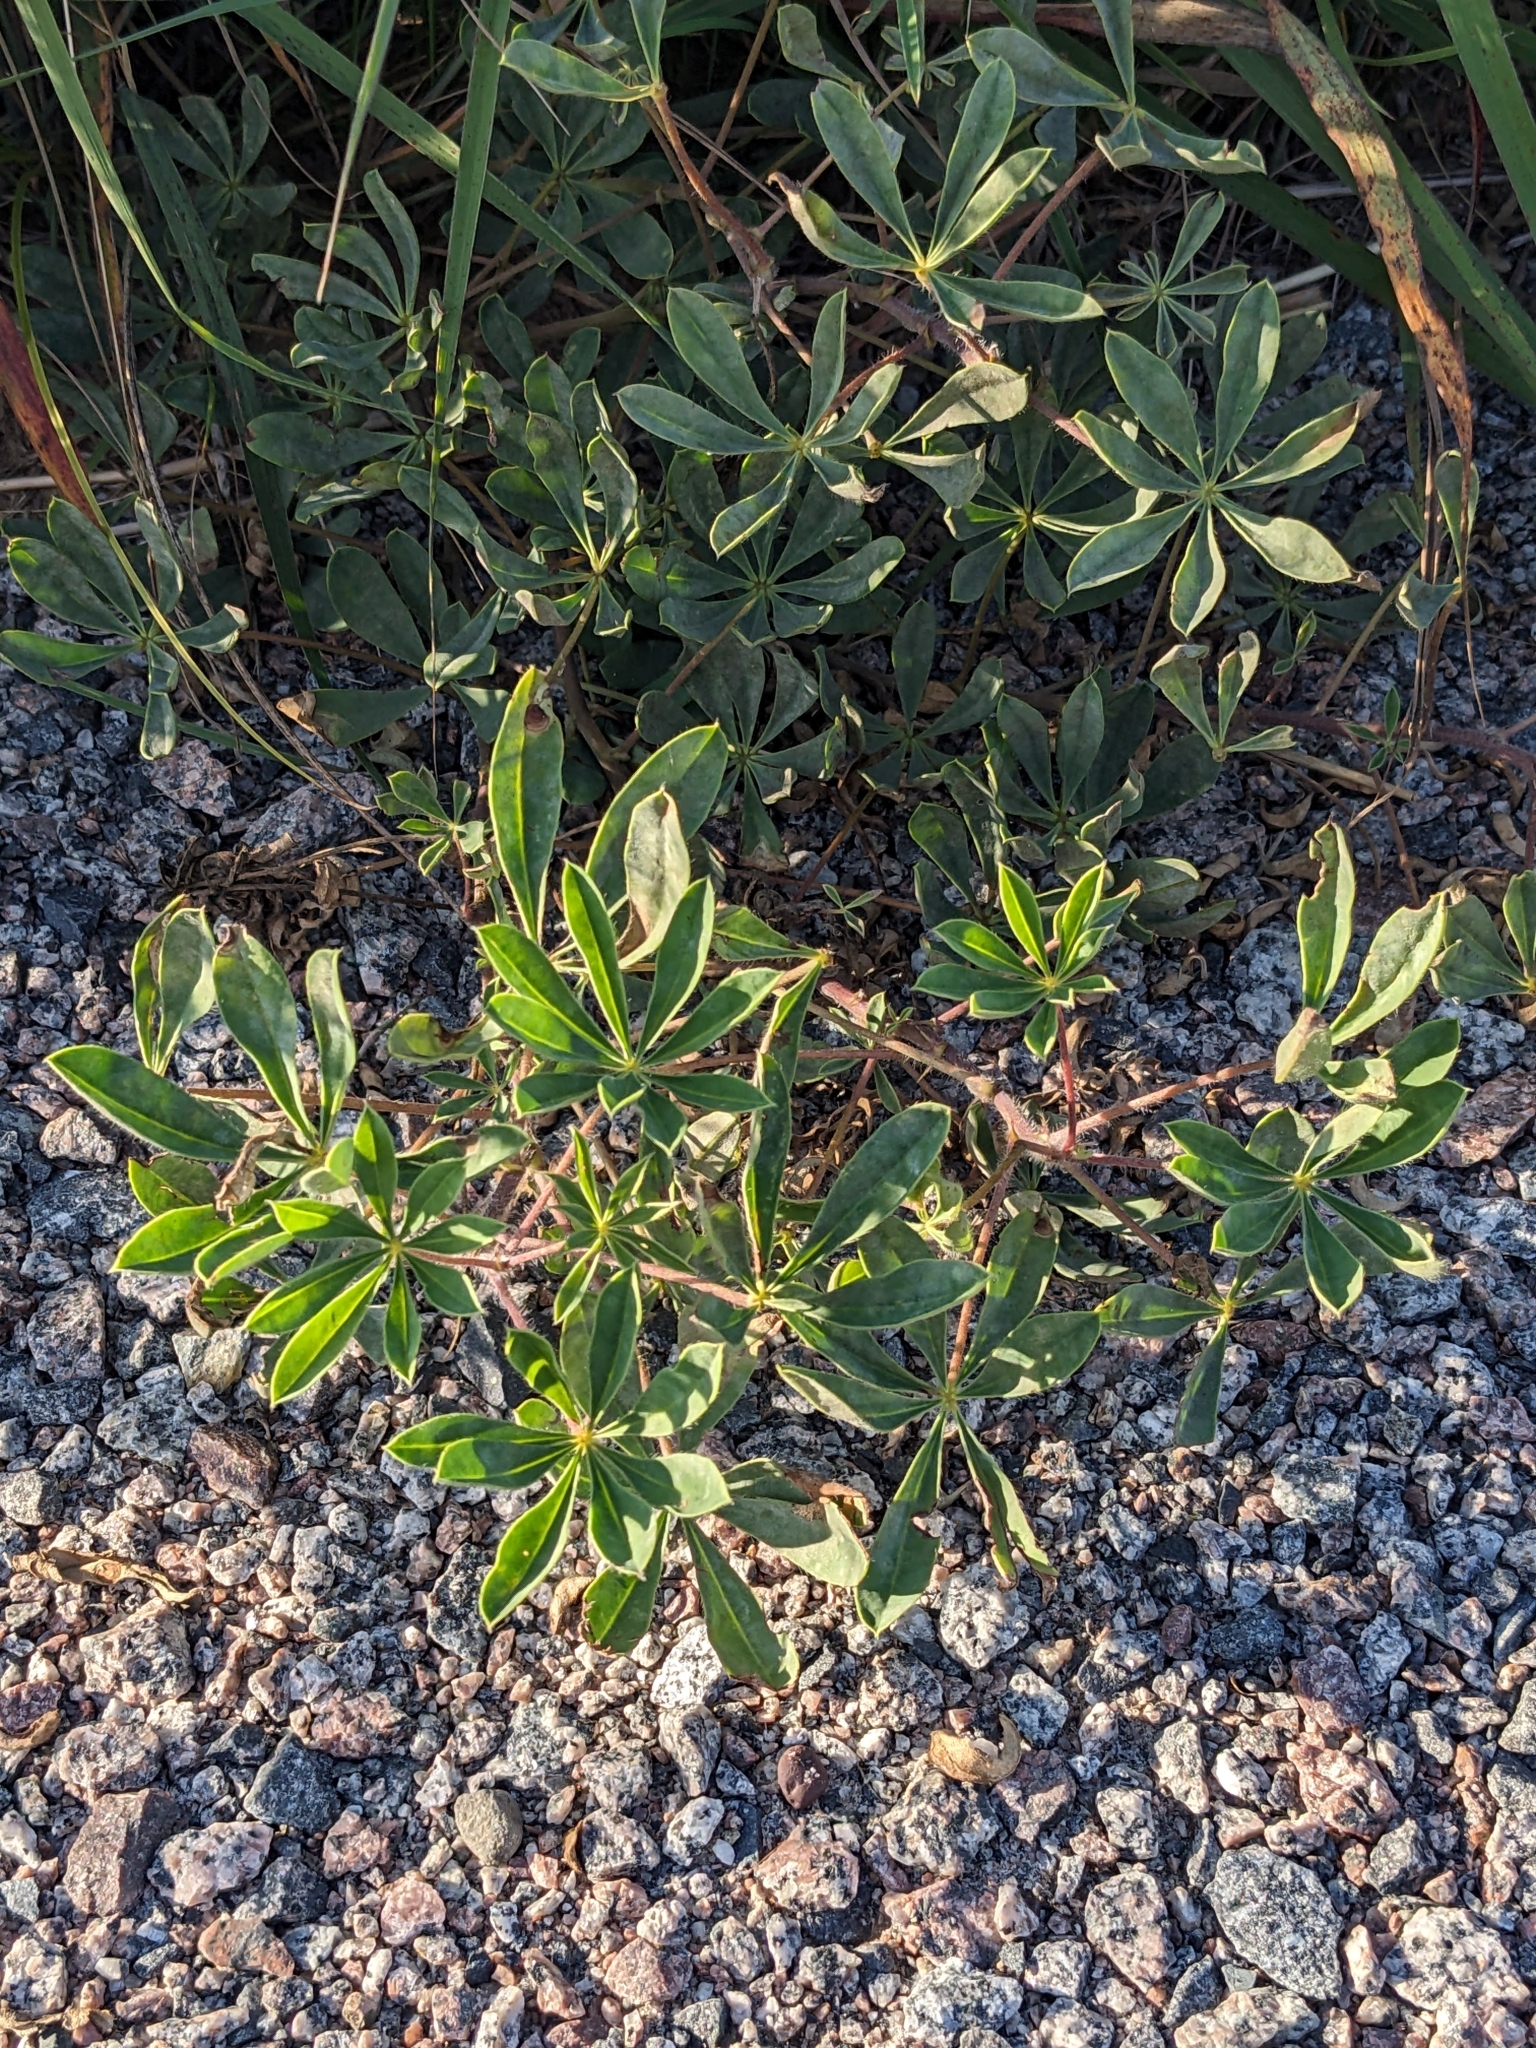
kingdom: Plantae
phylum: Tracheophyta
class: Magnoliopsida
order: Fabales
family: Fabaceae
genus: Lupinus
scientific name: Lupinus perennis
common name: Sundial lupine
